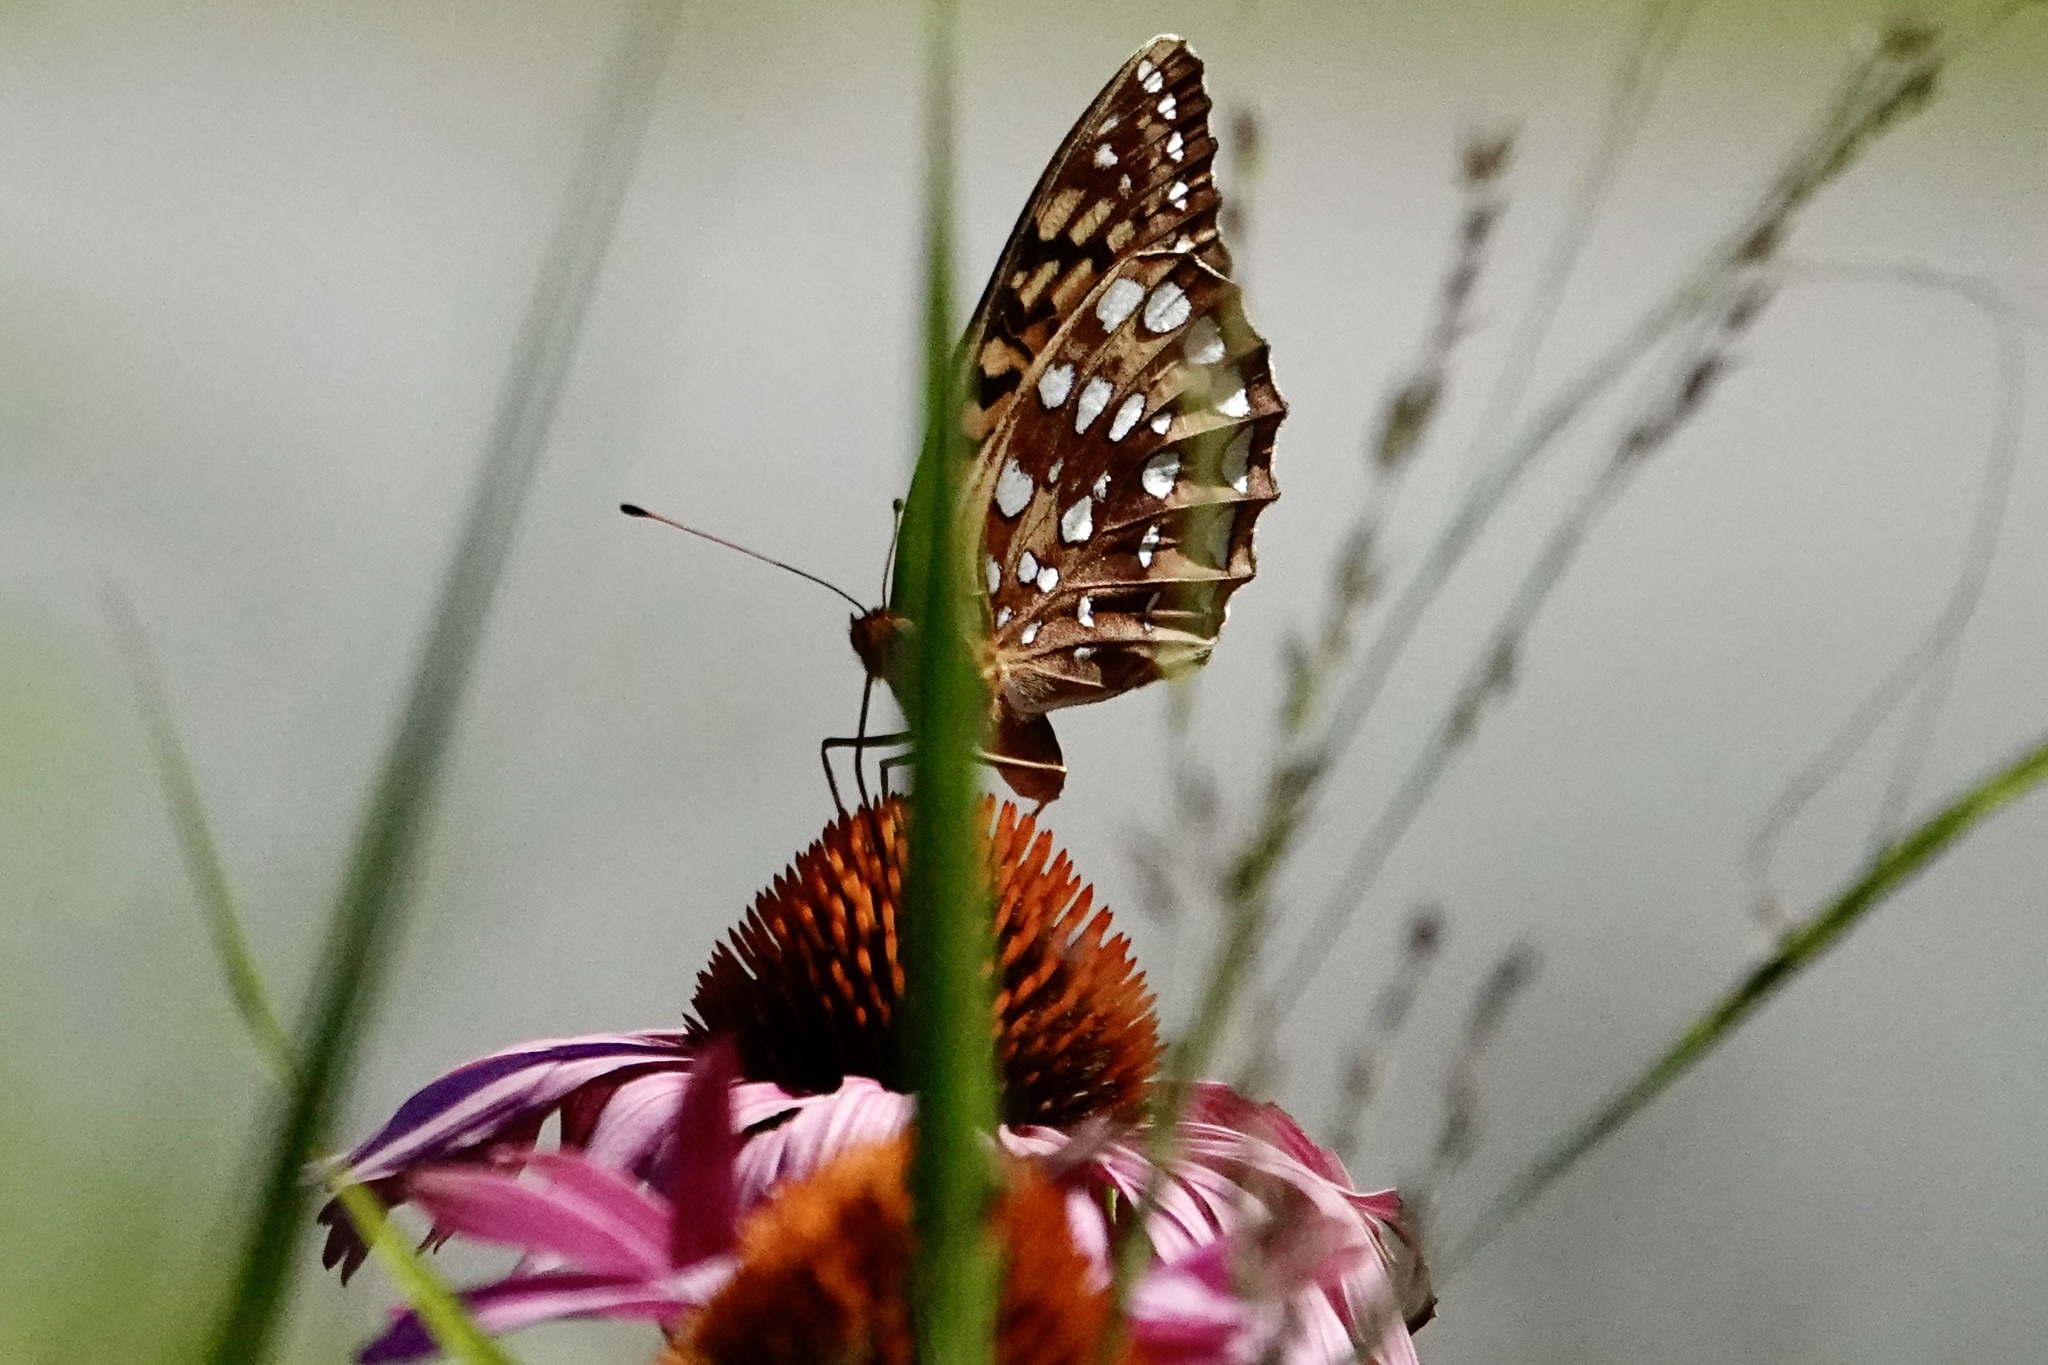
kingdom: Animalia
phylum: Arthropoda
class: Insecta
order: Lepidoptera
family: Nymphalidae
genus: Speyeria
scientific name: Speyeria cybele
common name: Great spangled fritillary
